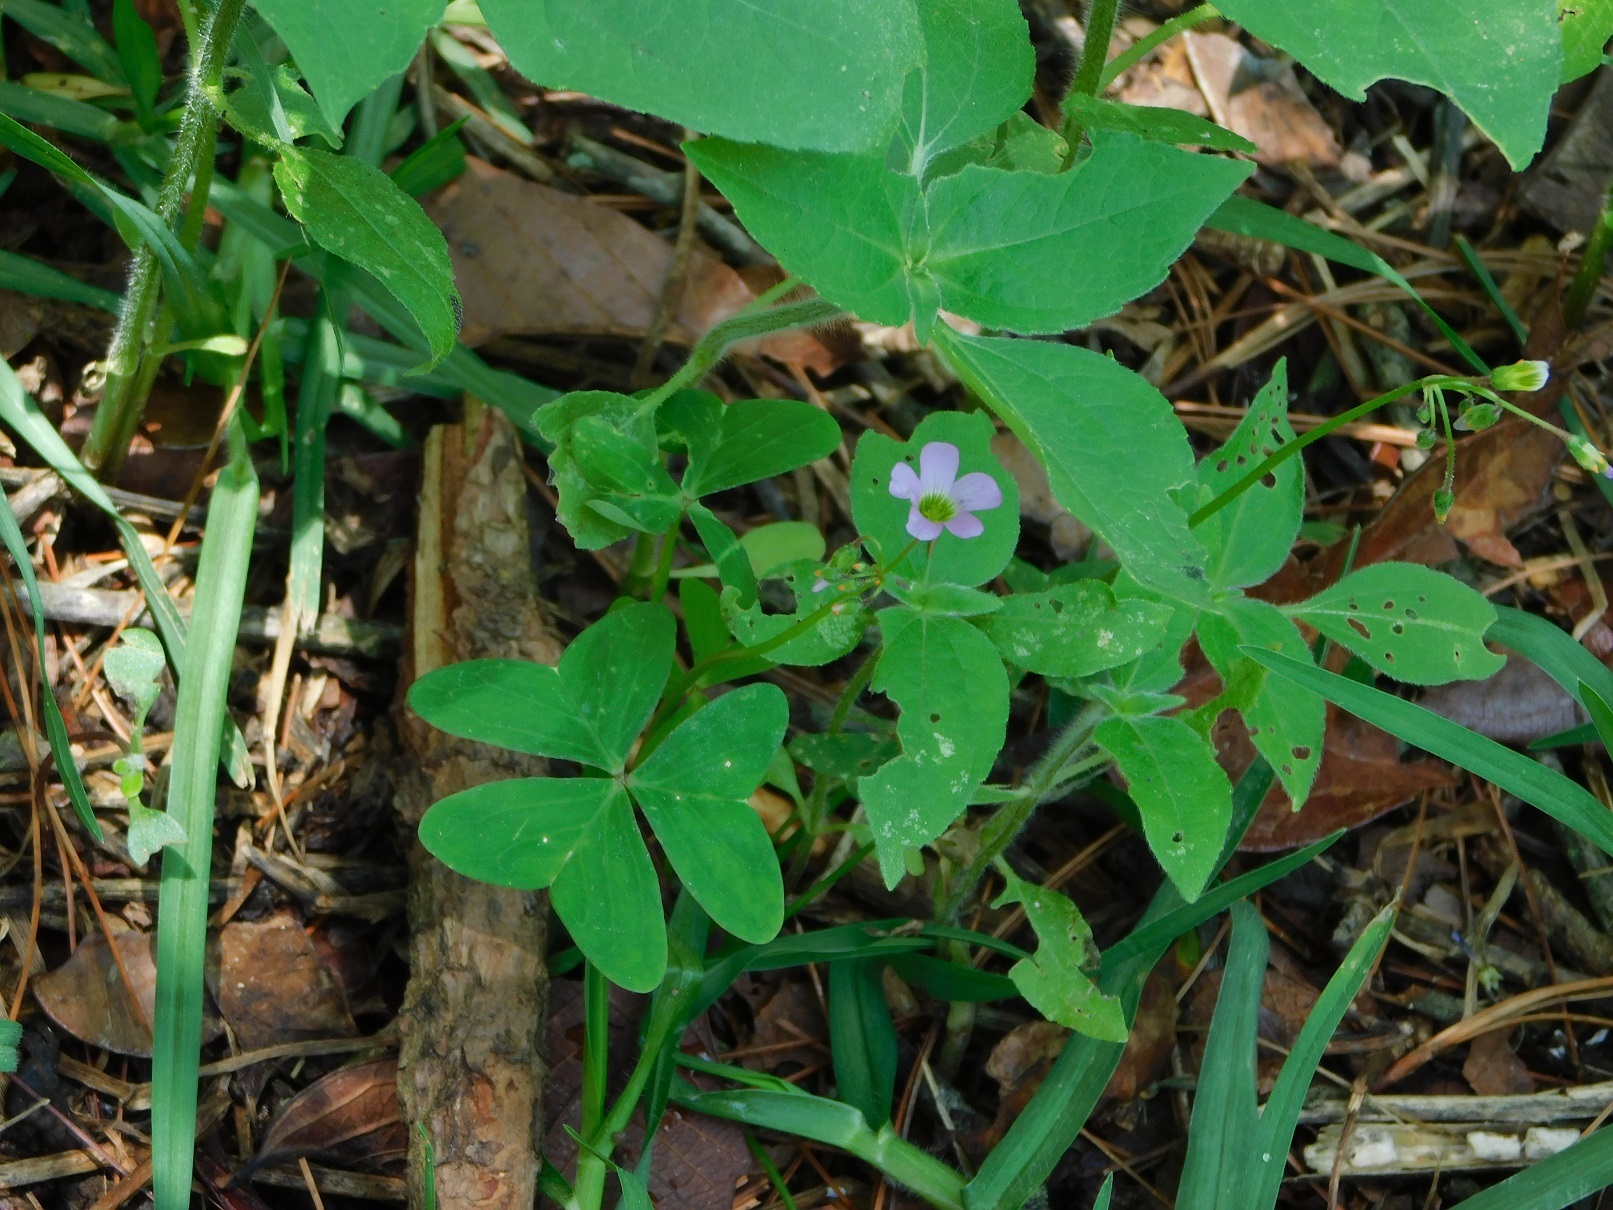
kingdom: Plantae
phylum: Tracheophyta
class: Magnoliopsida
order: Oxalidales
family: Oxalidaceae
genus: Oxalis
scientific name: Oxalis latifolia
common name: Garden pink-sorrel
